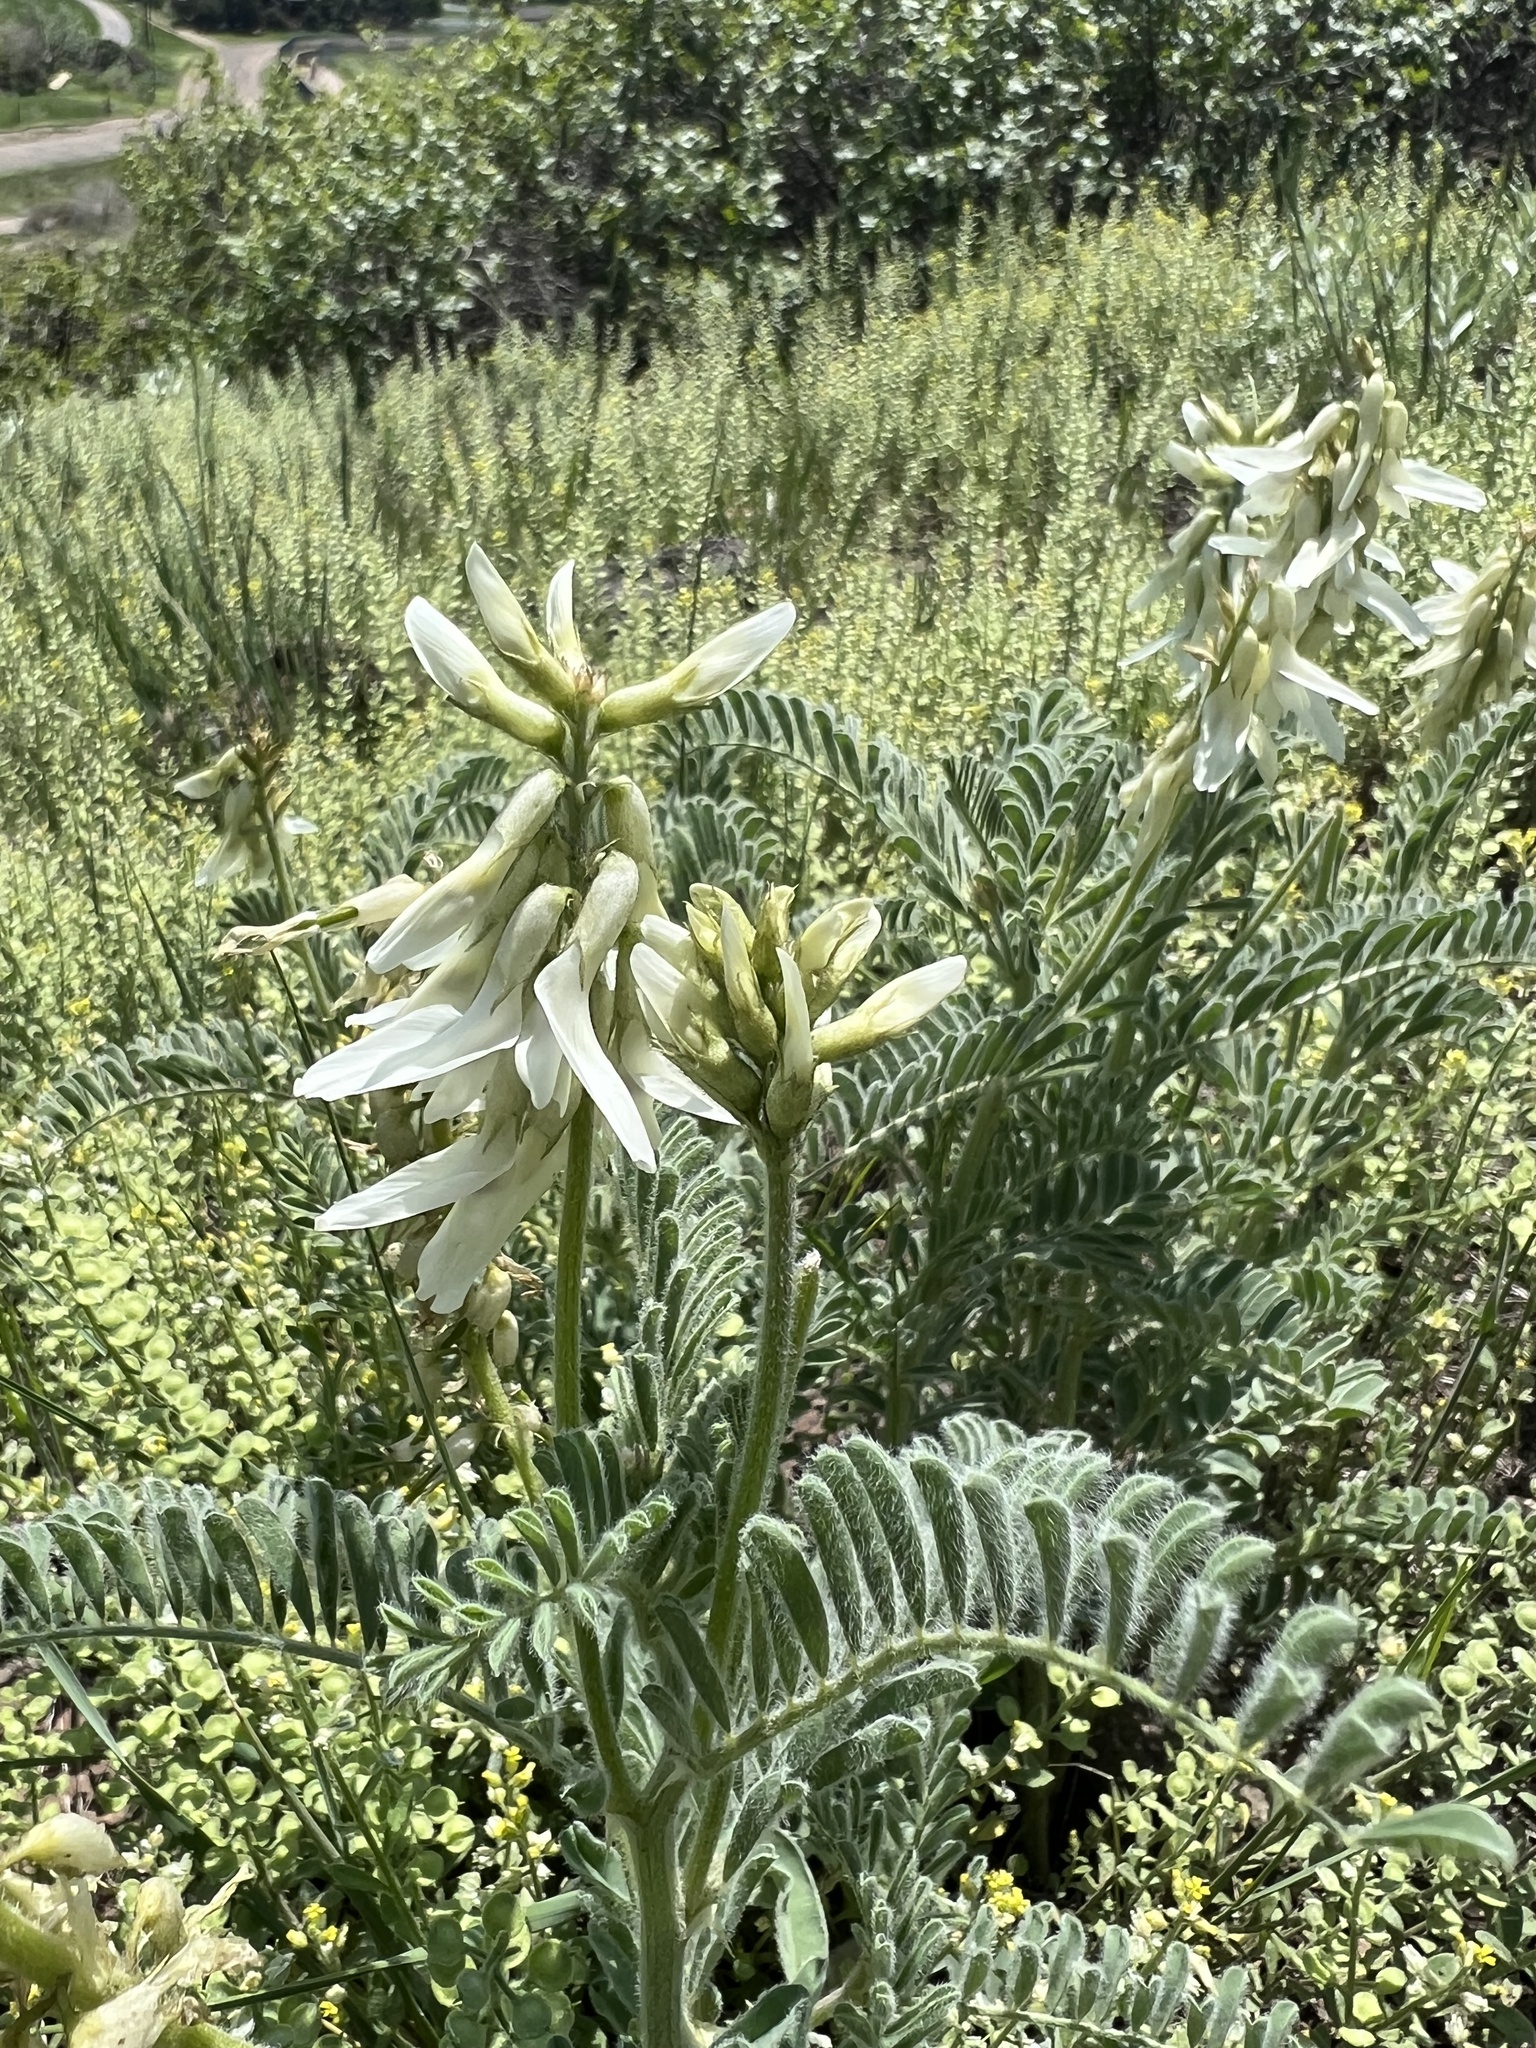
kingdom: Plantae
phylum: Tracheophyta
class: Magnoliopsida
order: Fabales
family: Fabaceae
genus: Astragalus
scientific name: Astragalus drummondii
